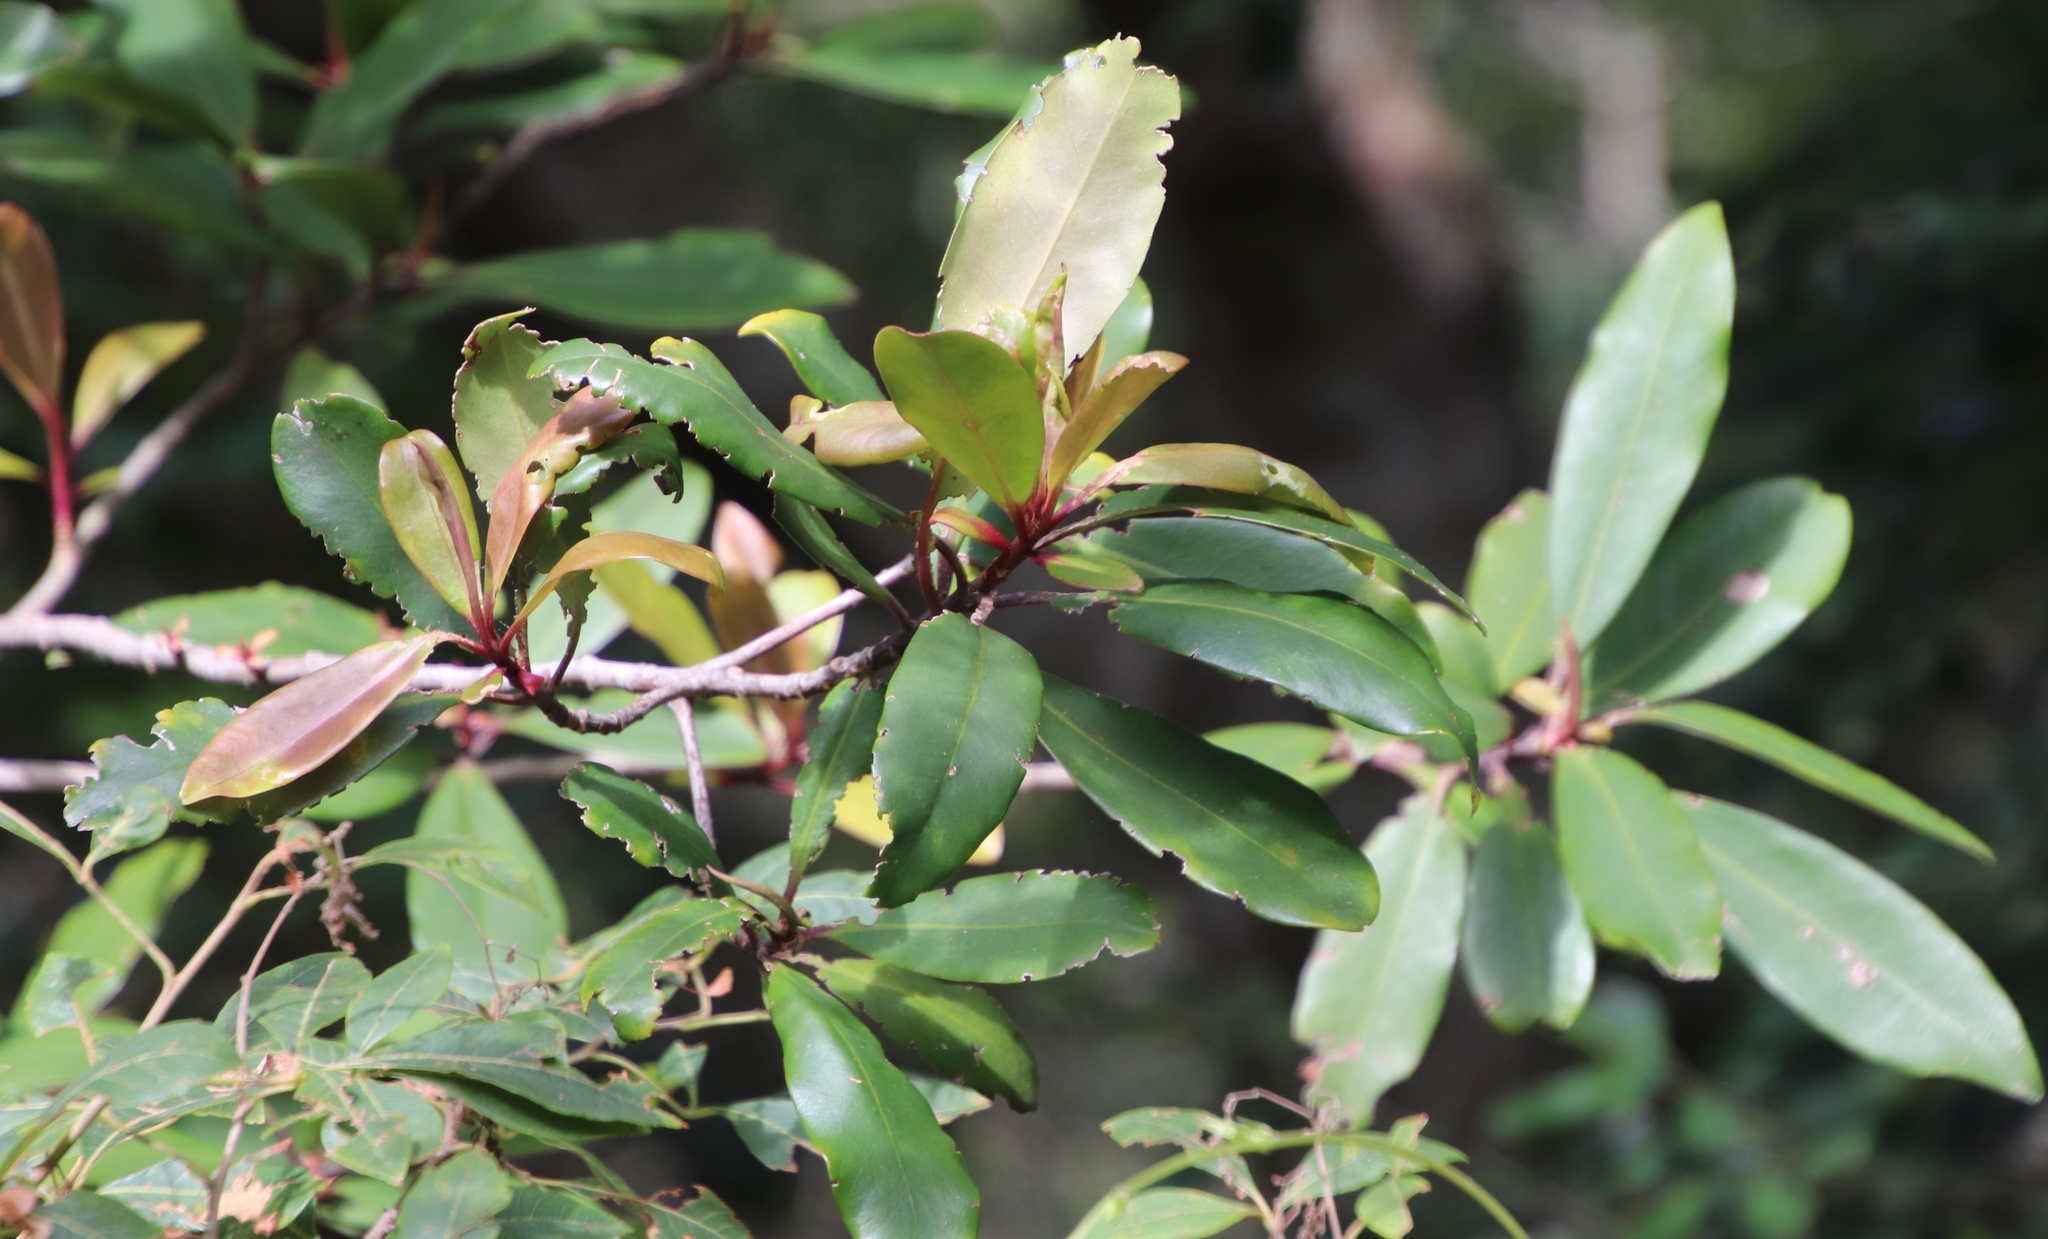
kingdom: Plantae
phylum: Tracheophyta
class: Magnoliopsida
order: Ericales
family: Primulaceae
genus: Myrsine
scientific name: Myrsine melanophloeos
